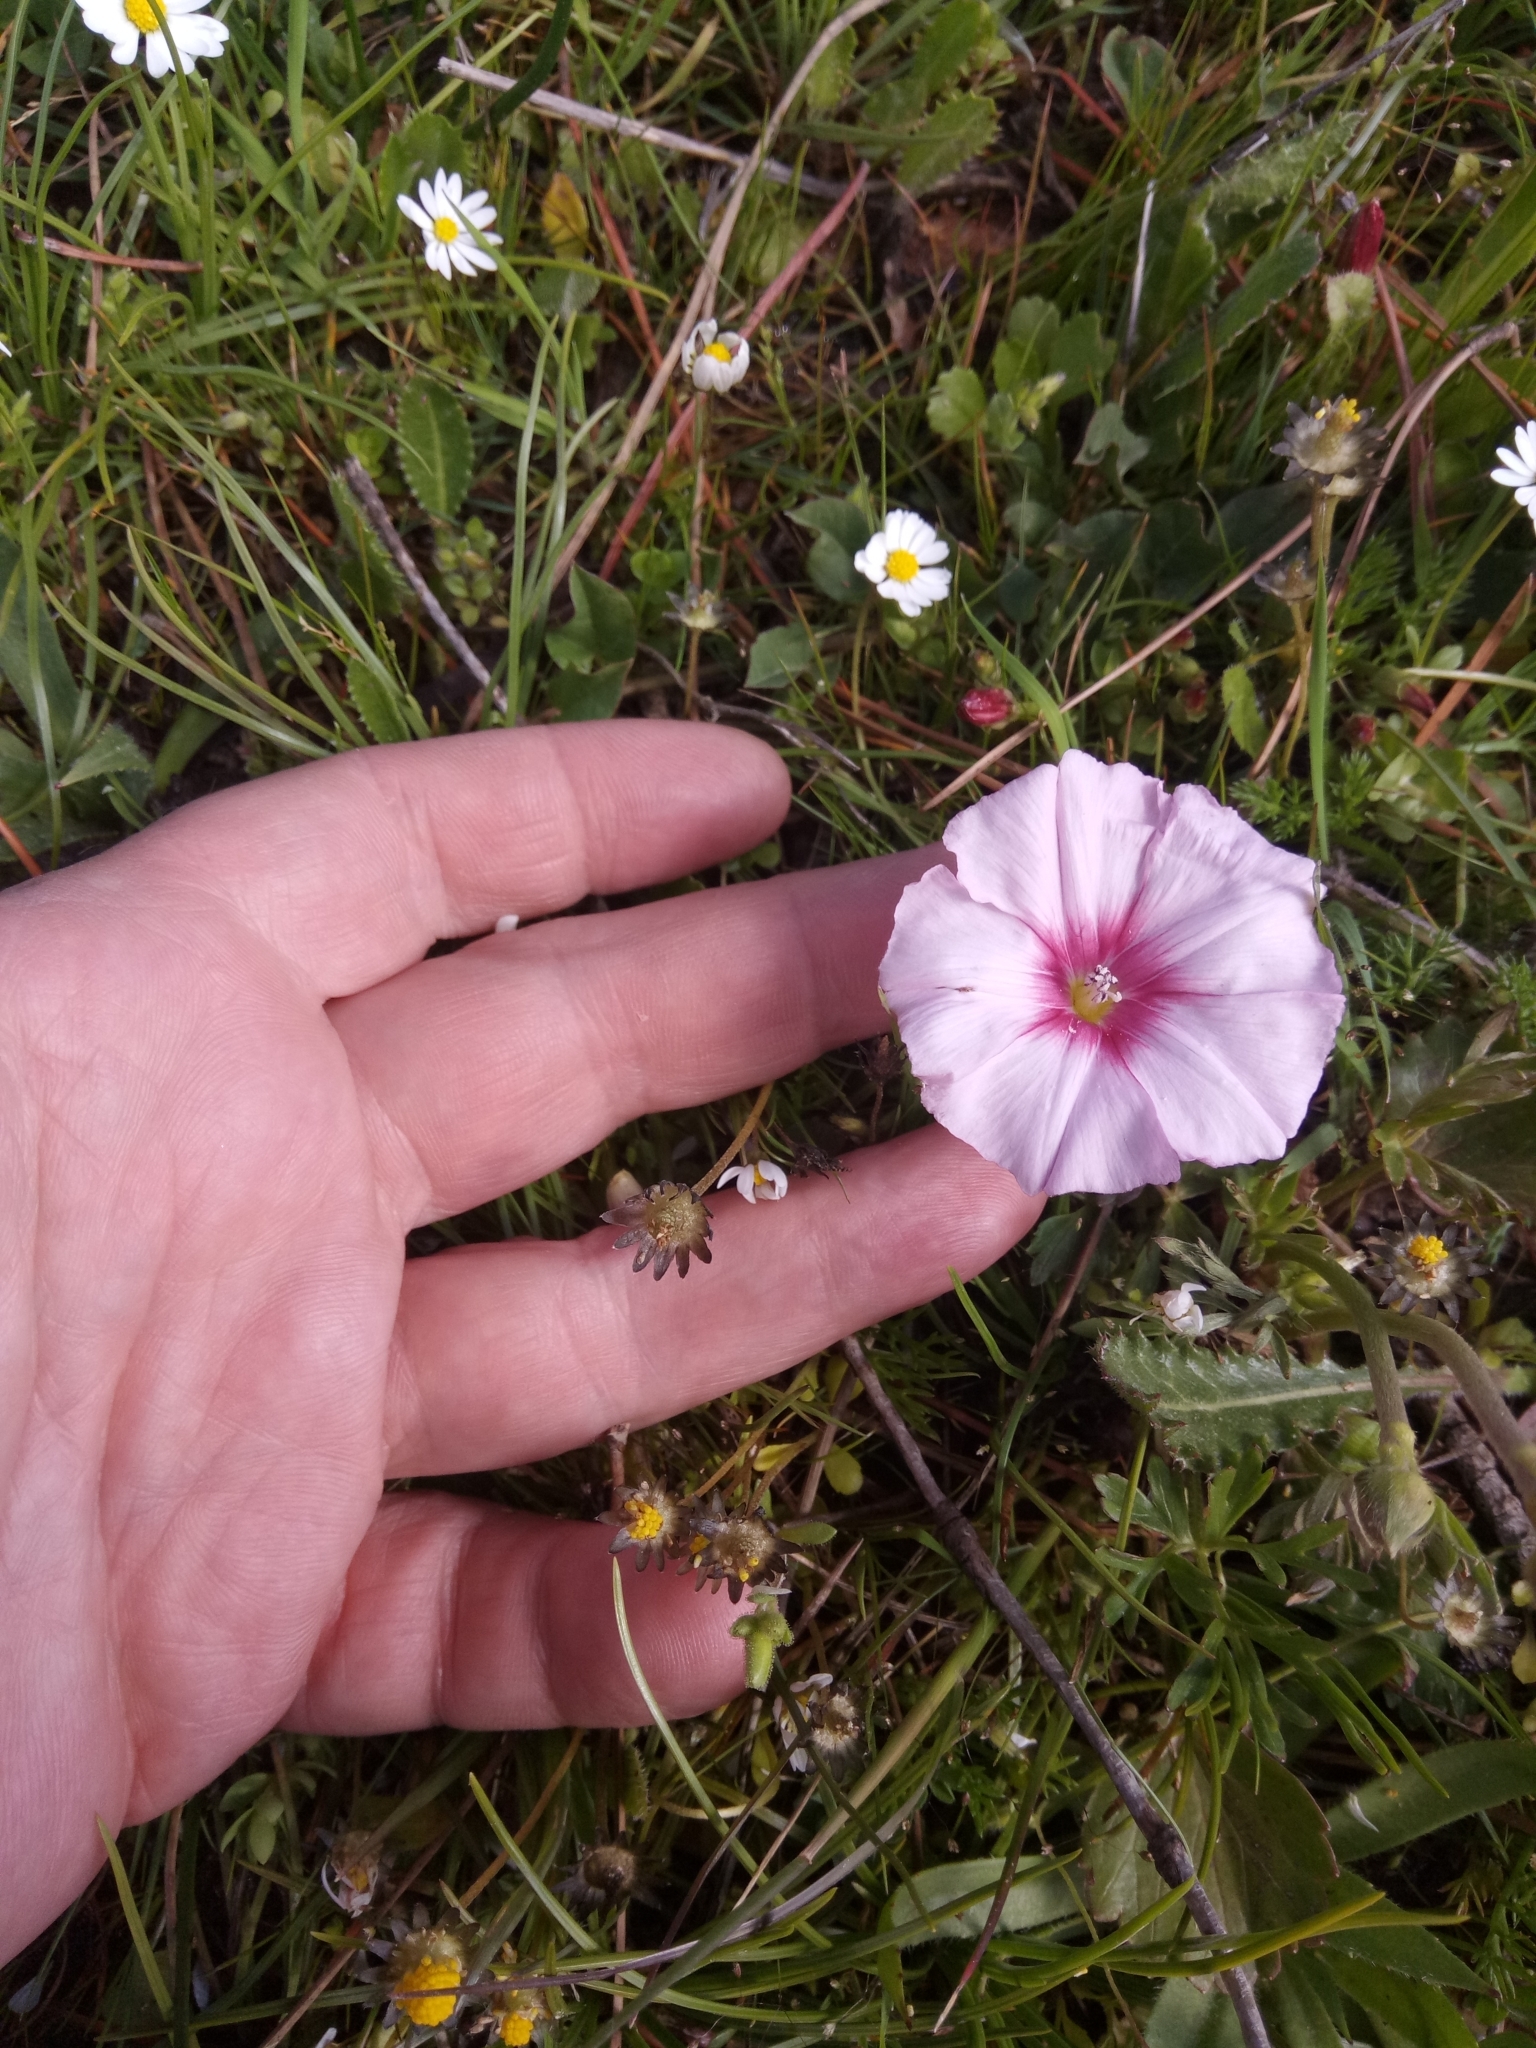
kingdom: Plantae
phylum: Tracheophyta
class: Magnoliopsida
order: Solanales
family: Convolvulaceae
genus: Convolvulus
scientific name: Convolvulus durandoi
